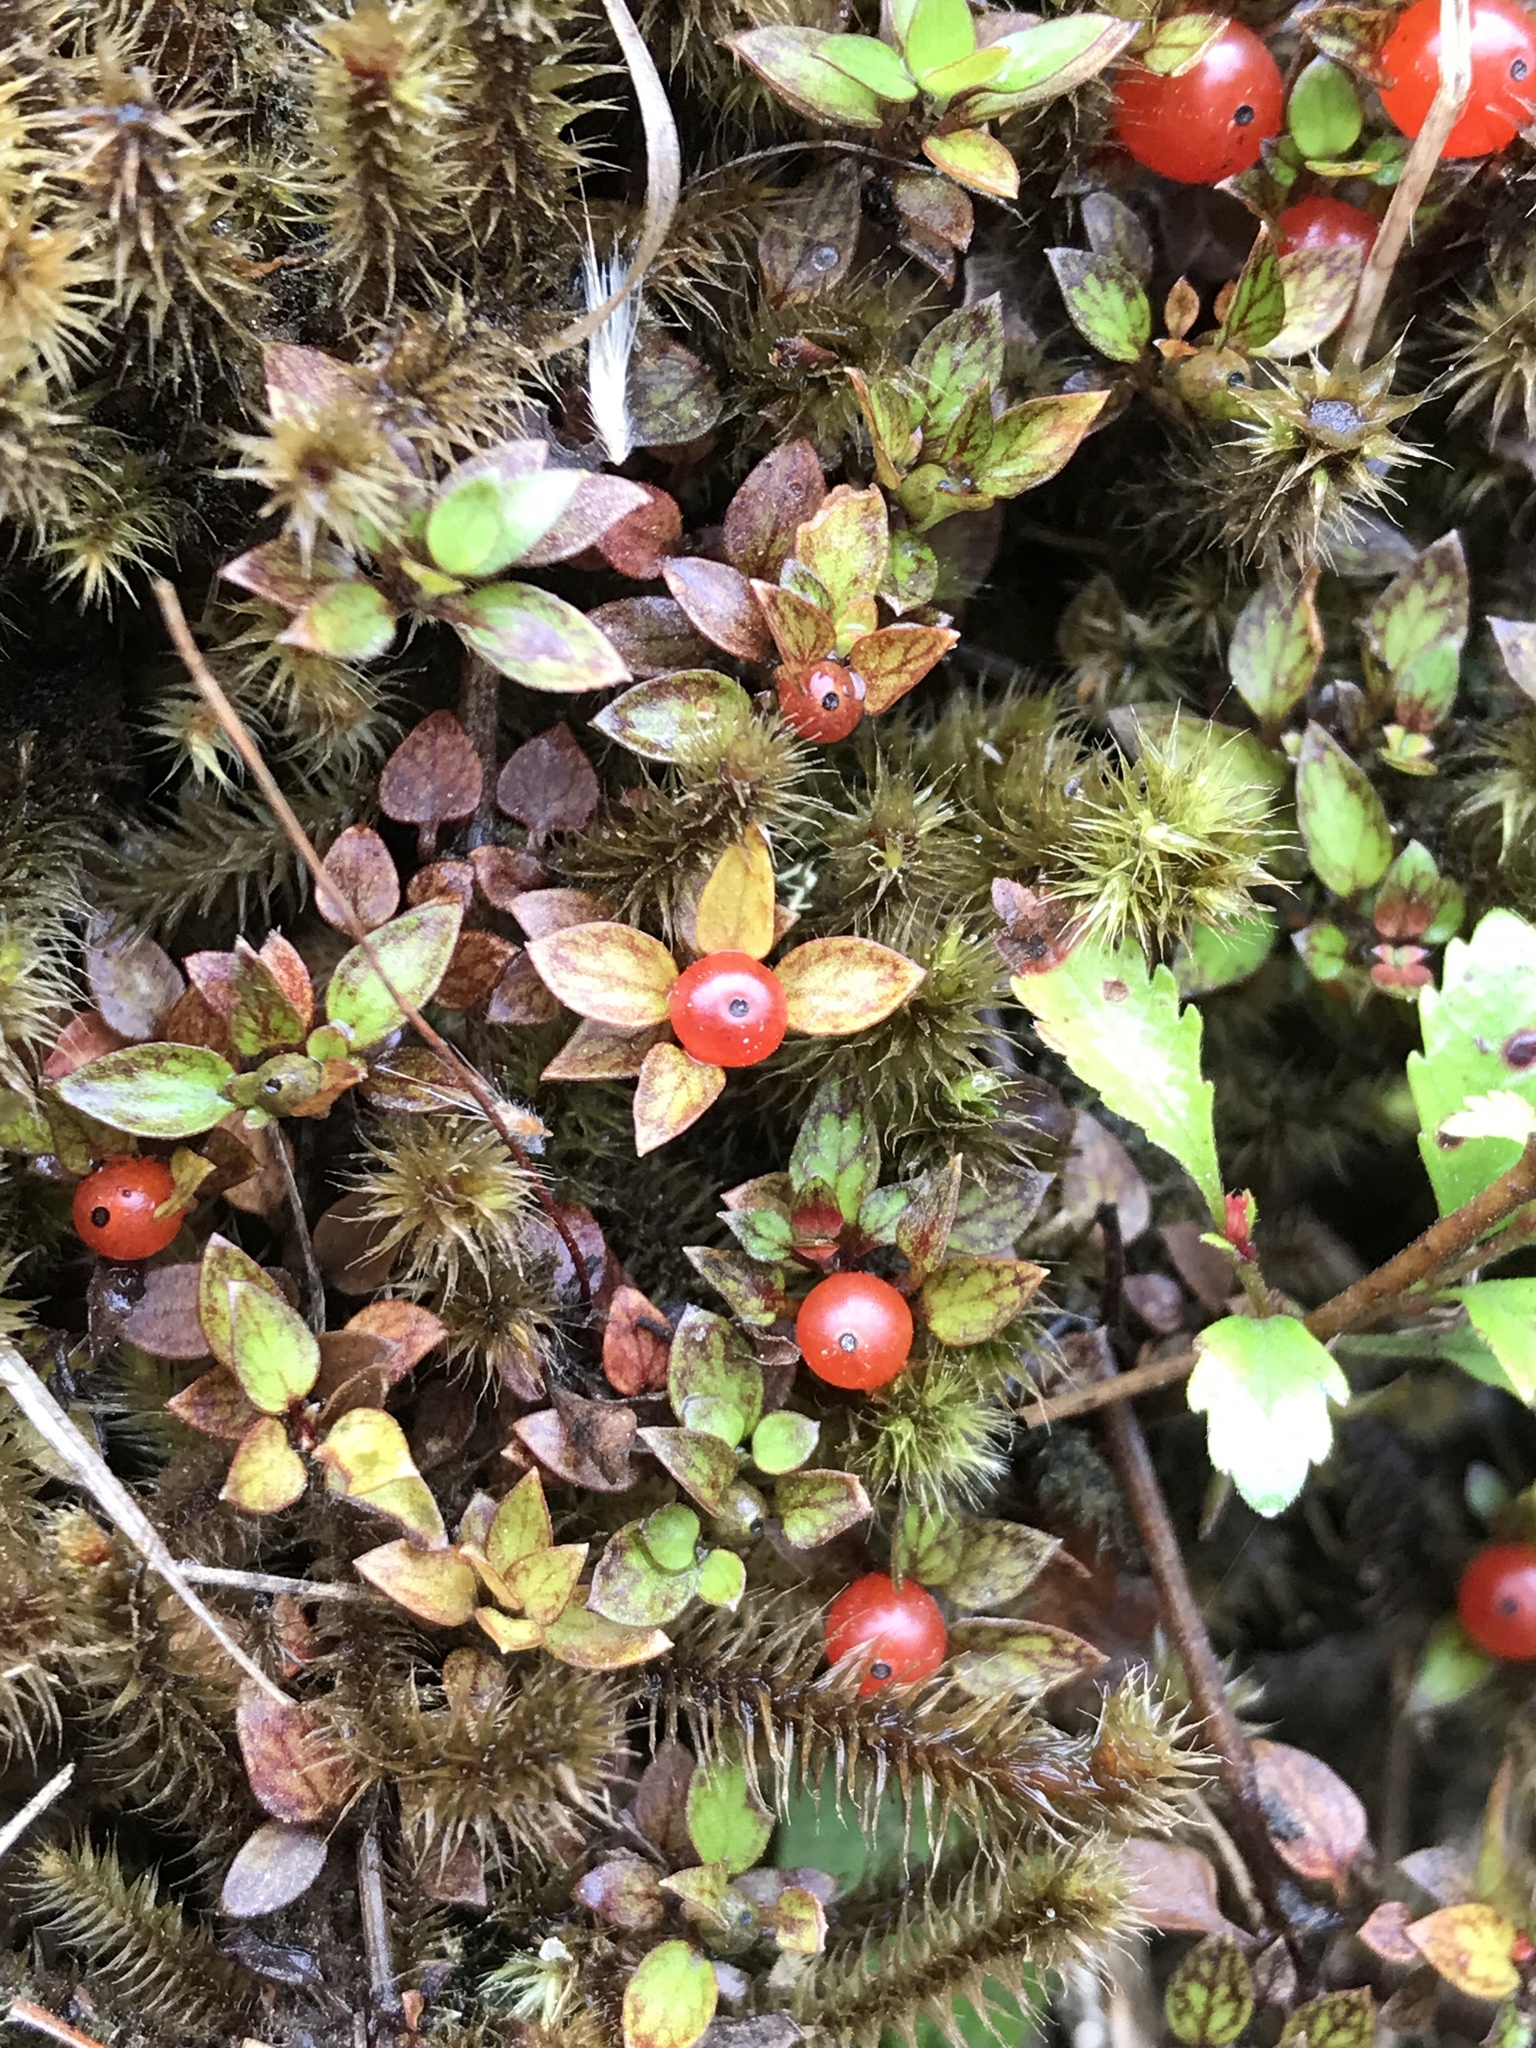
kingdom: Plantae
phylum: Tracheophyta
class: Magnoliopsida
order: Gentianales
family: Rubiaceae
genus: Nertera
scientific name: Nertera granadensis
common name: Beadplant
